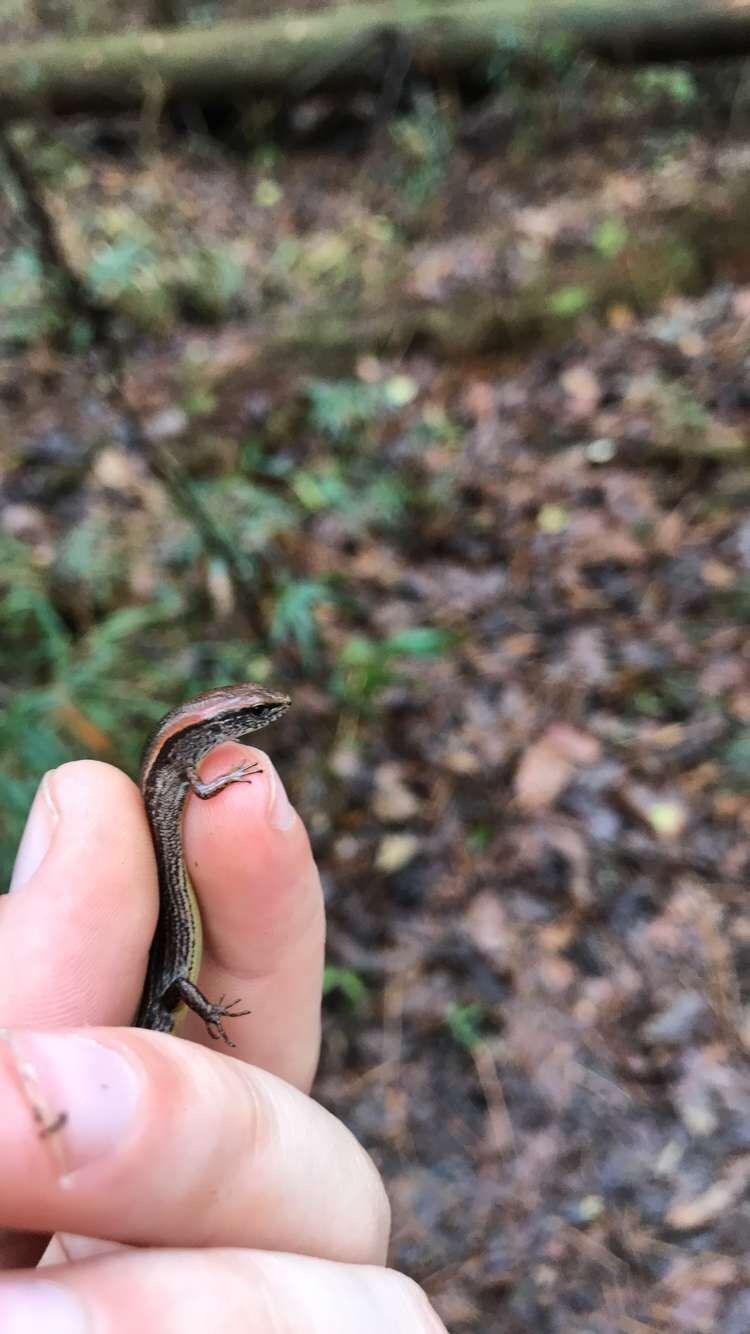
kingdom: Animalia
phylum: Chordata
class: Squamata
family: Scincidae
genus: Scincella
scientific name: Scincella lateralis
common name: Ground skink
